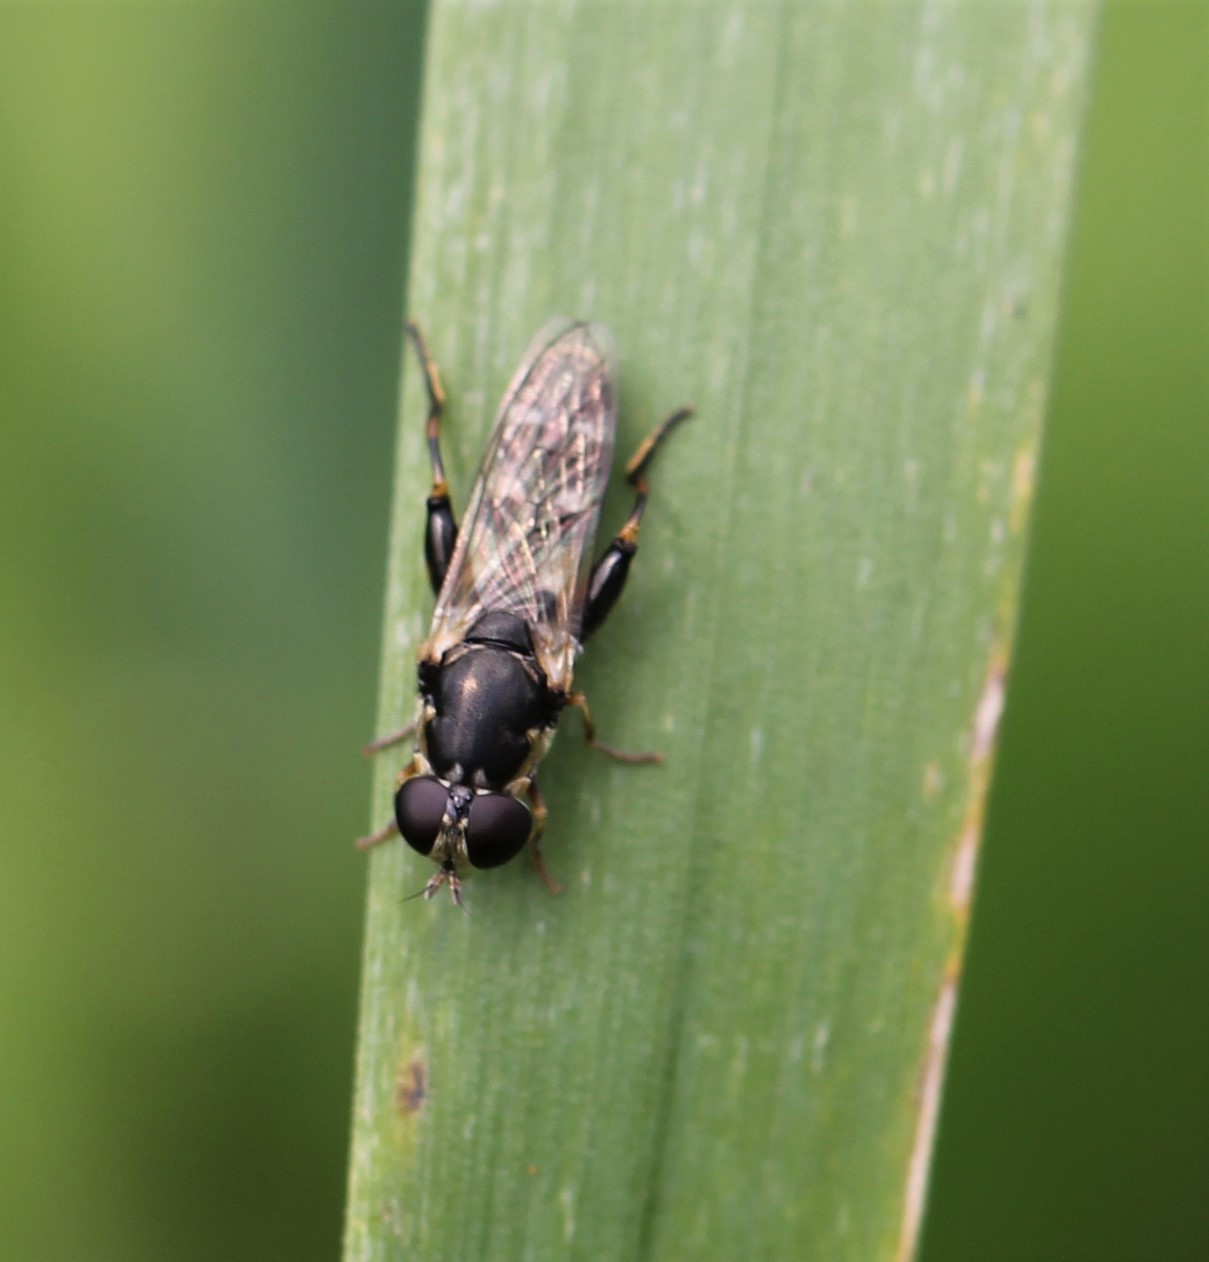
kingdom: Animalia
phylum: Arthropoda
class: Insecta
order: Diptera
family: Syrphidae
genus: Syritta
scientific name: Syritta pipiens
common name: Hover fly
